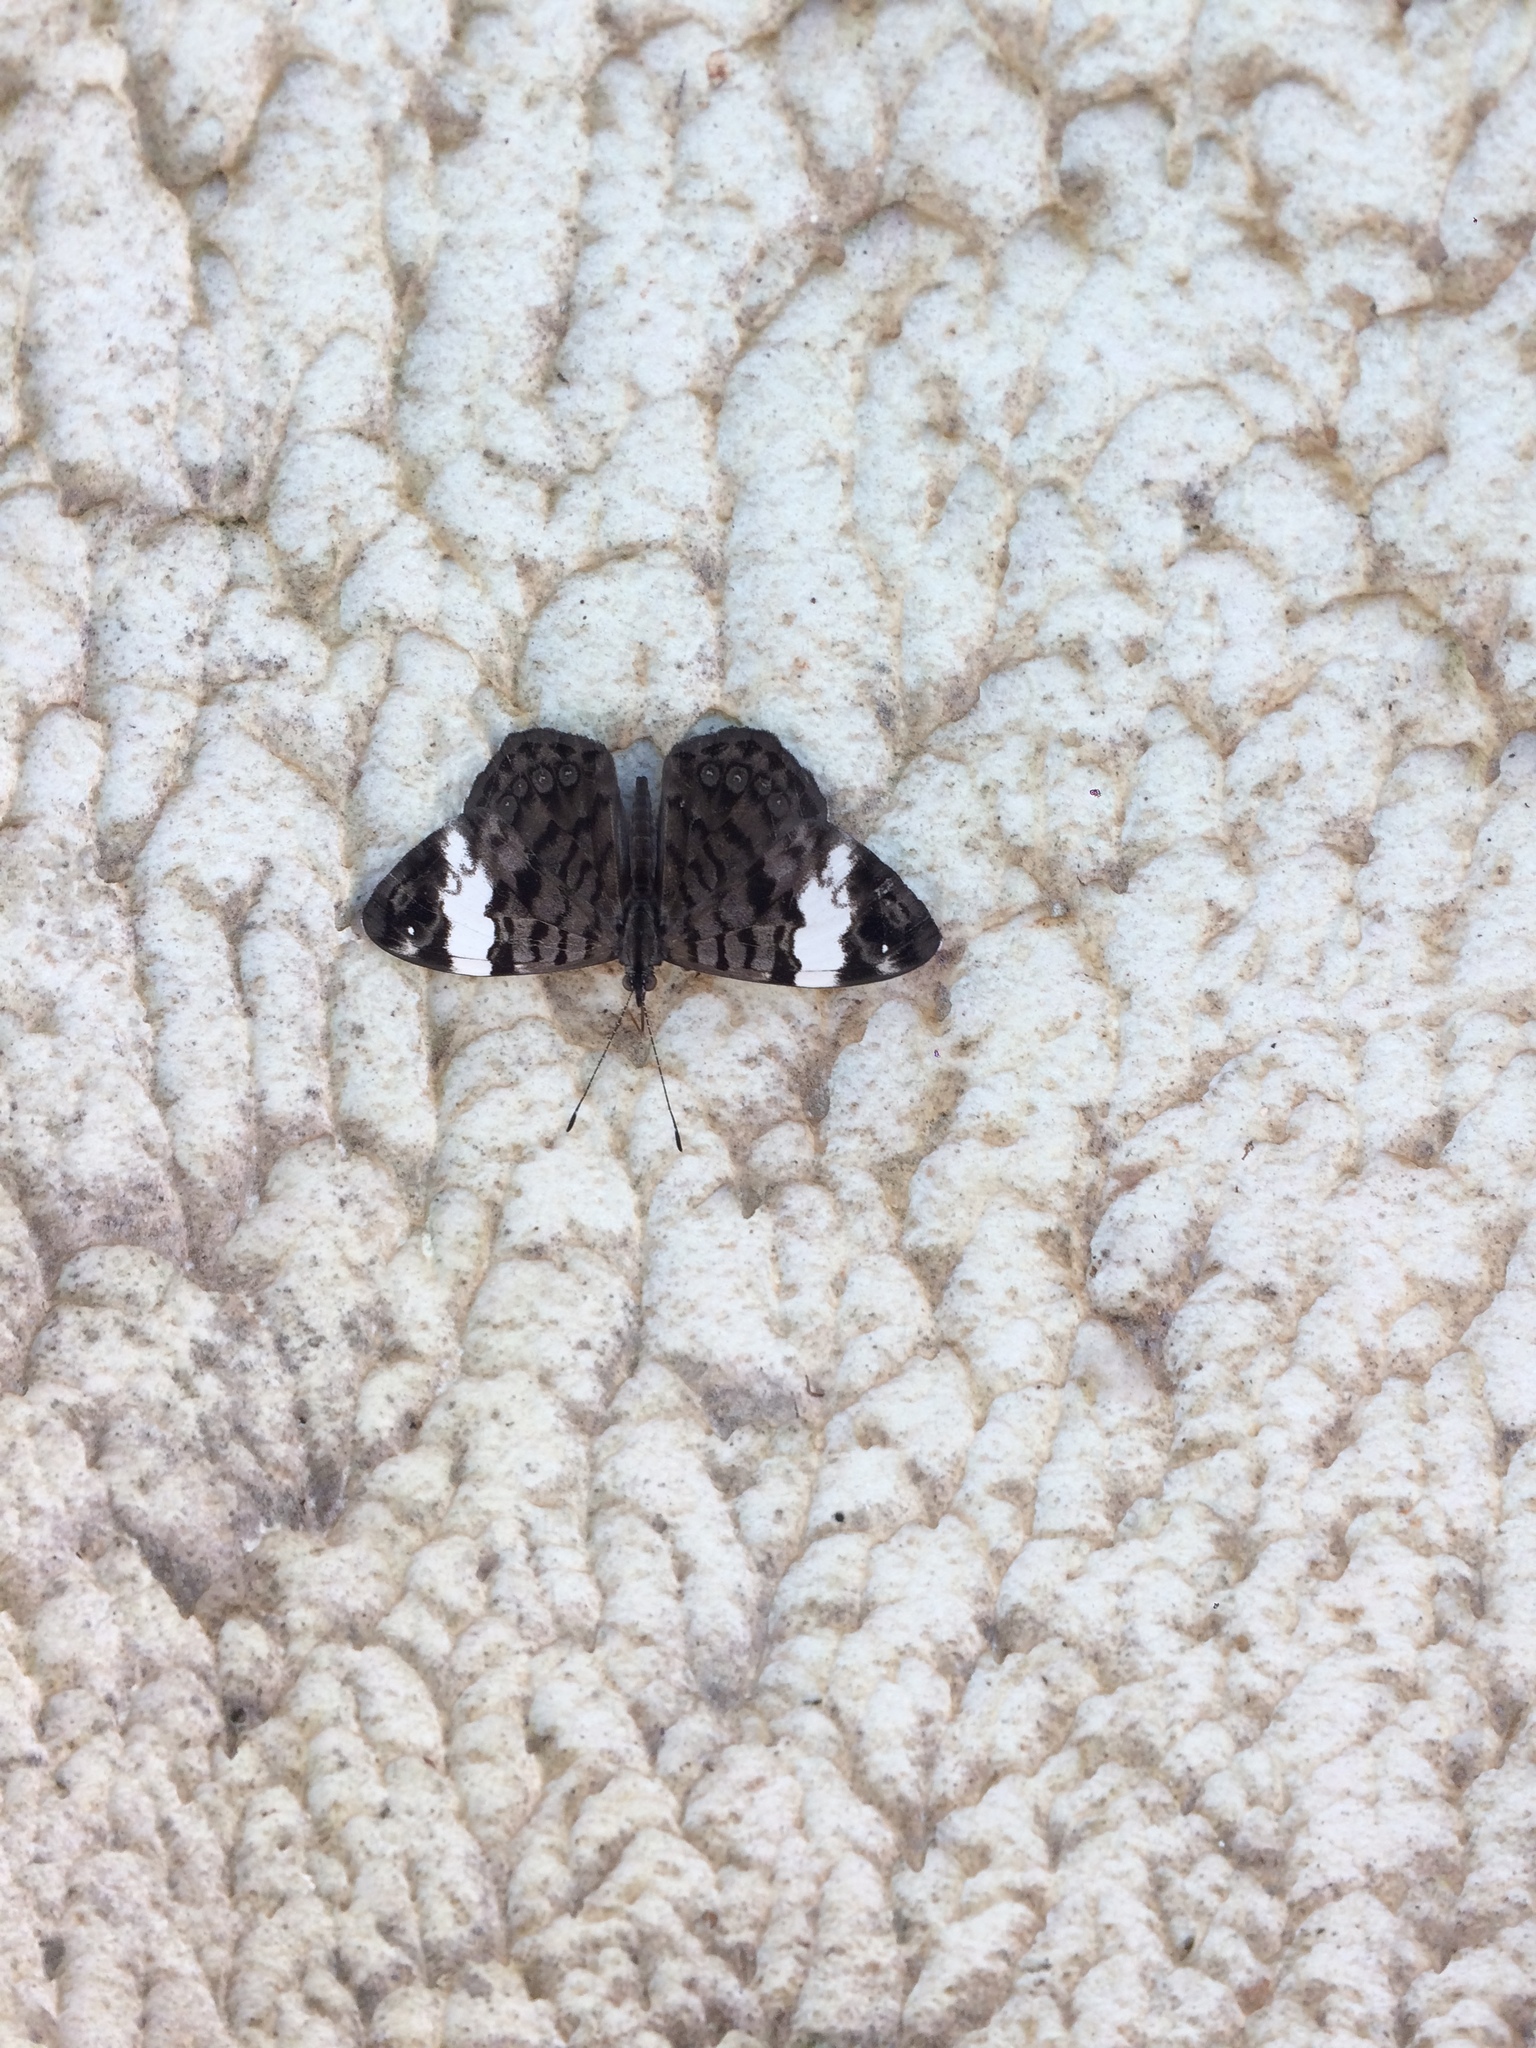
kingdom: Animalia
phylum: Arthropoda
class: Insecta
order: Lepidoptera
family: Nymphalidae
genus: Ectima
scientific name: Ectima thecla
